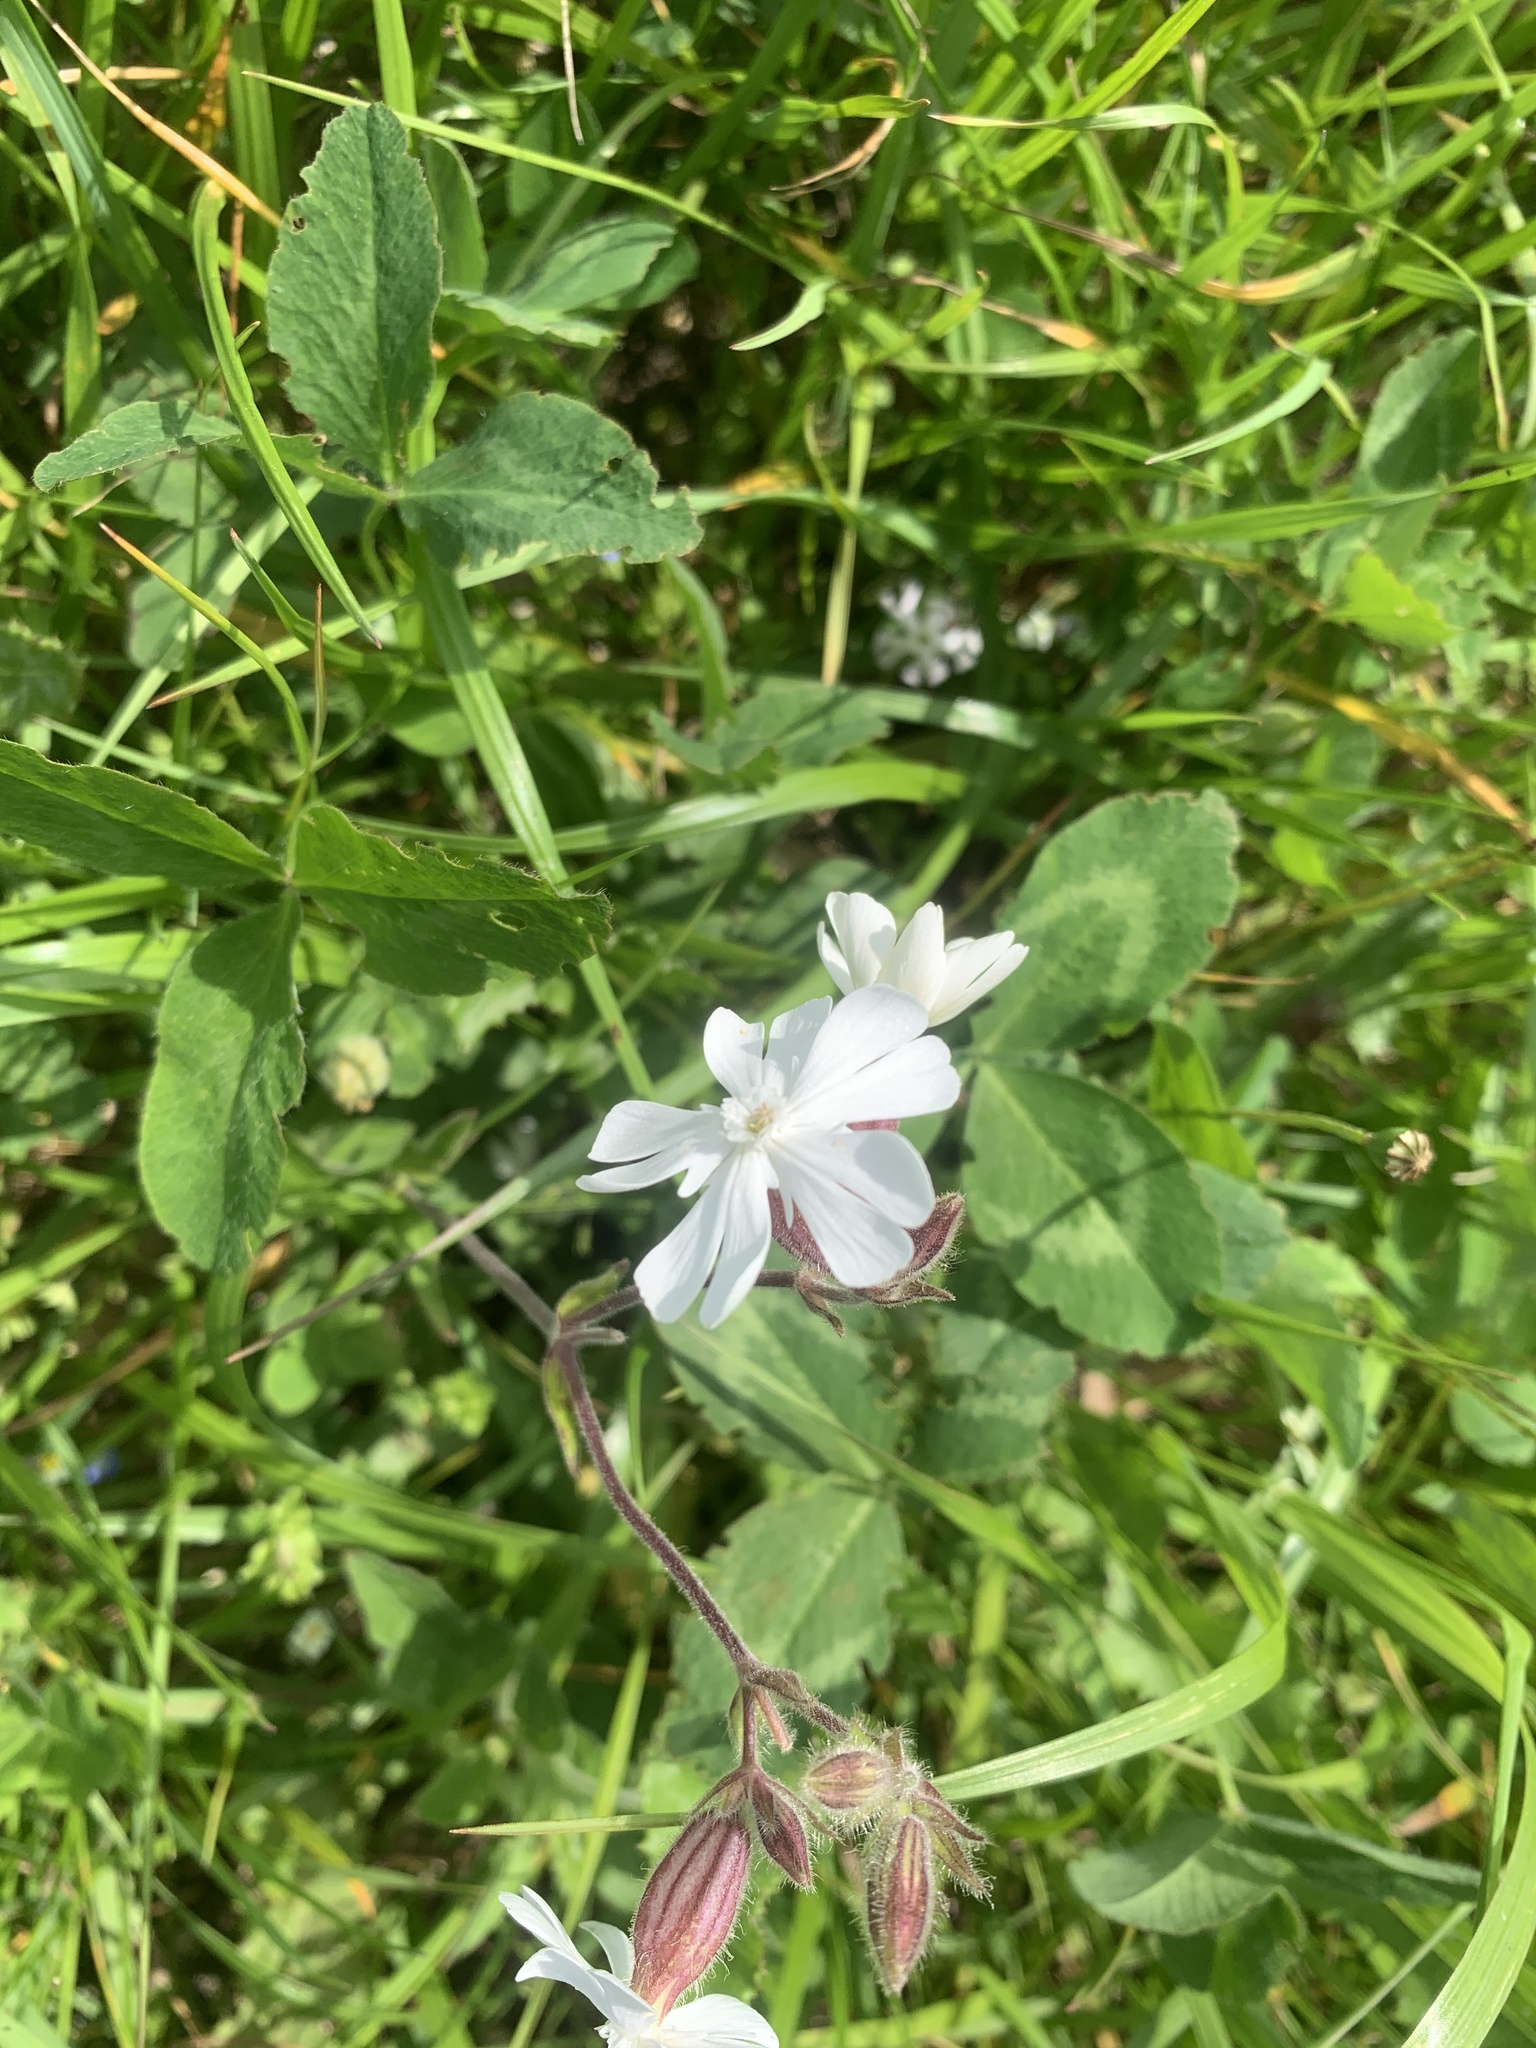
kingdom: Plantae
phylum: Tracheophyta
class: Magnoliopsida
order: Caryophyllales
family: Caryophyllaceae
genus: Silene
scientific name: Silene latifolia
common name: White campion
